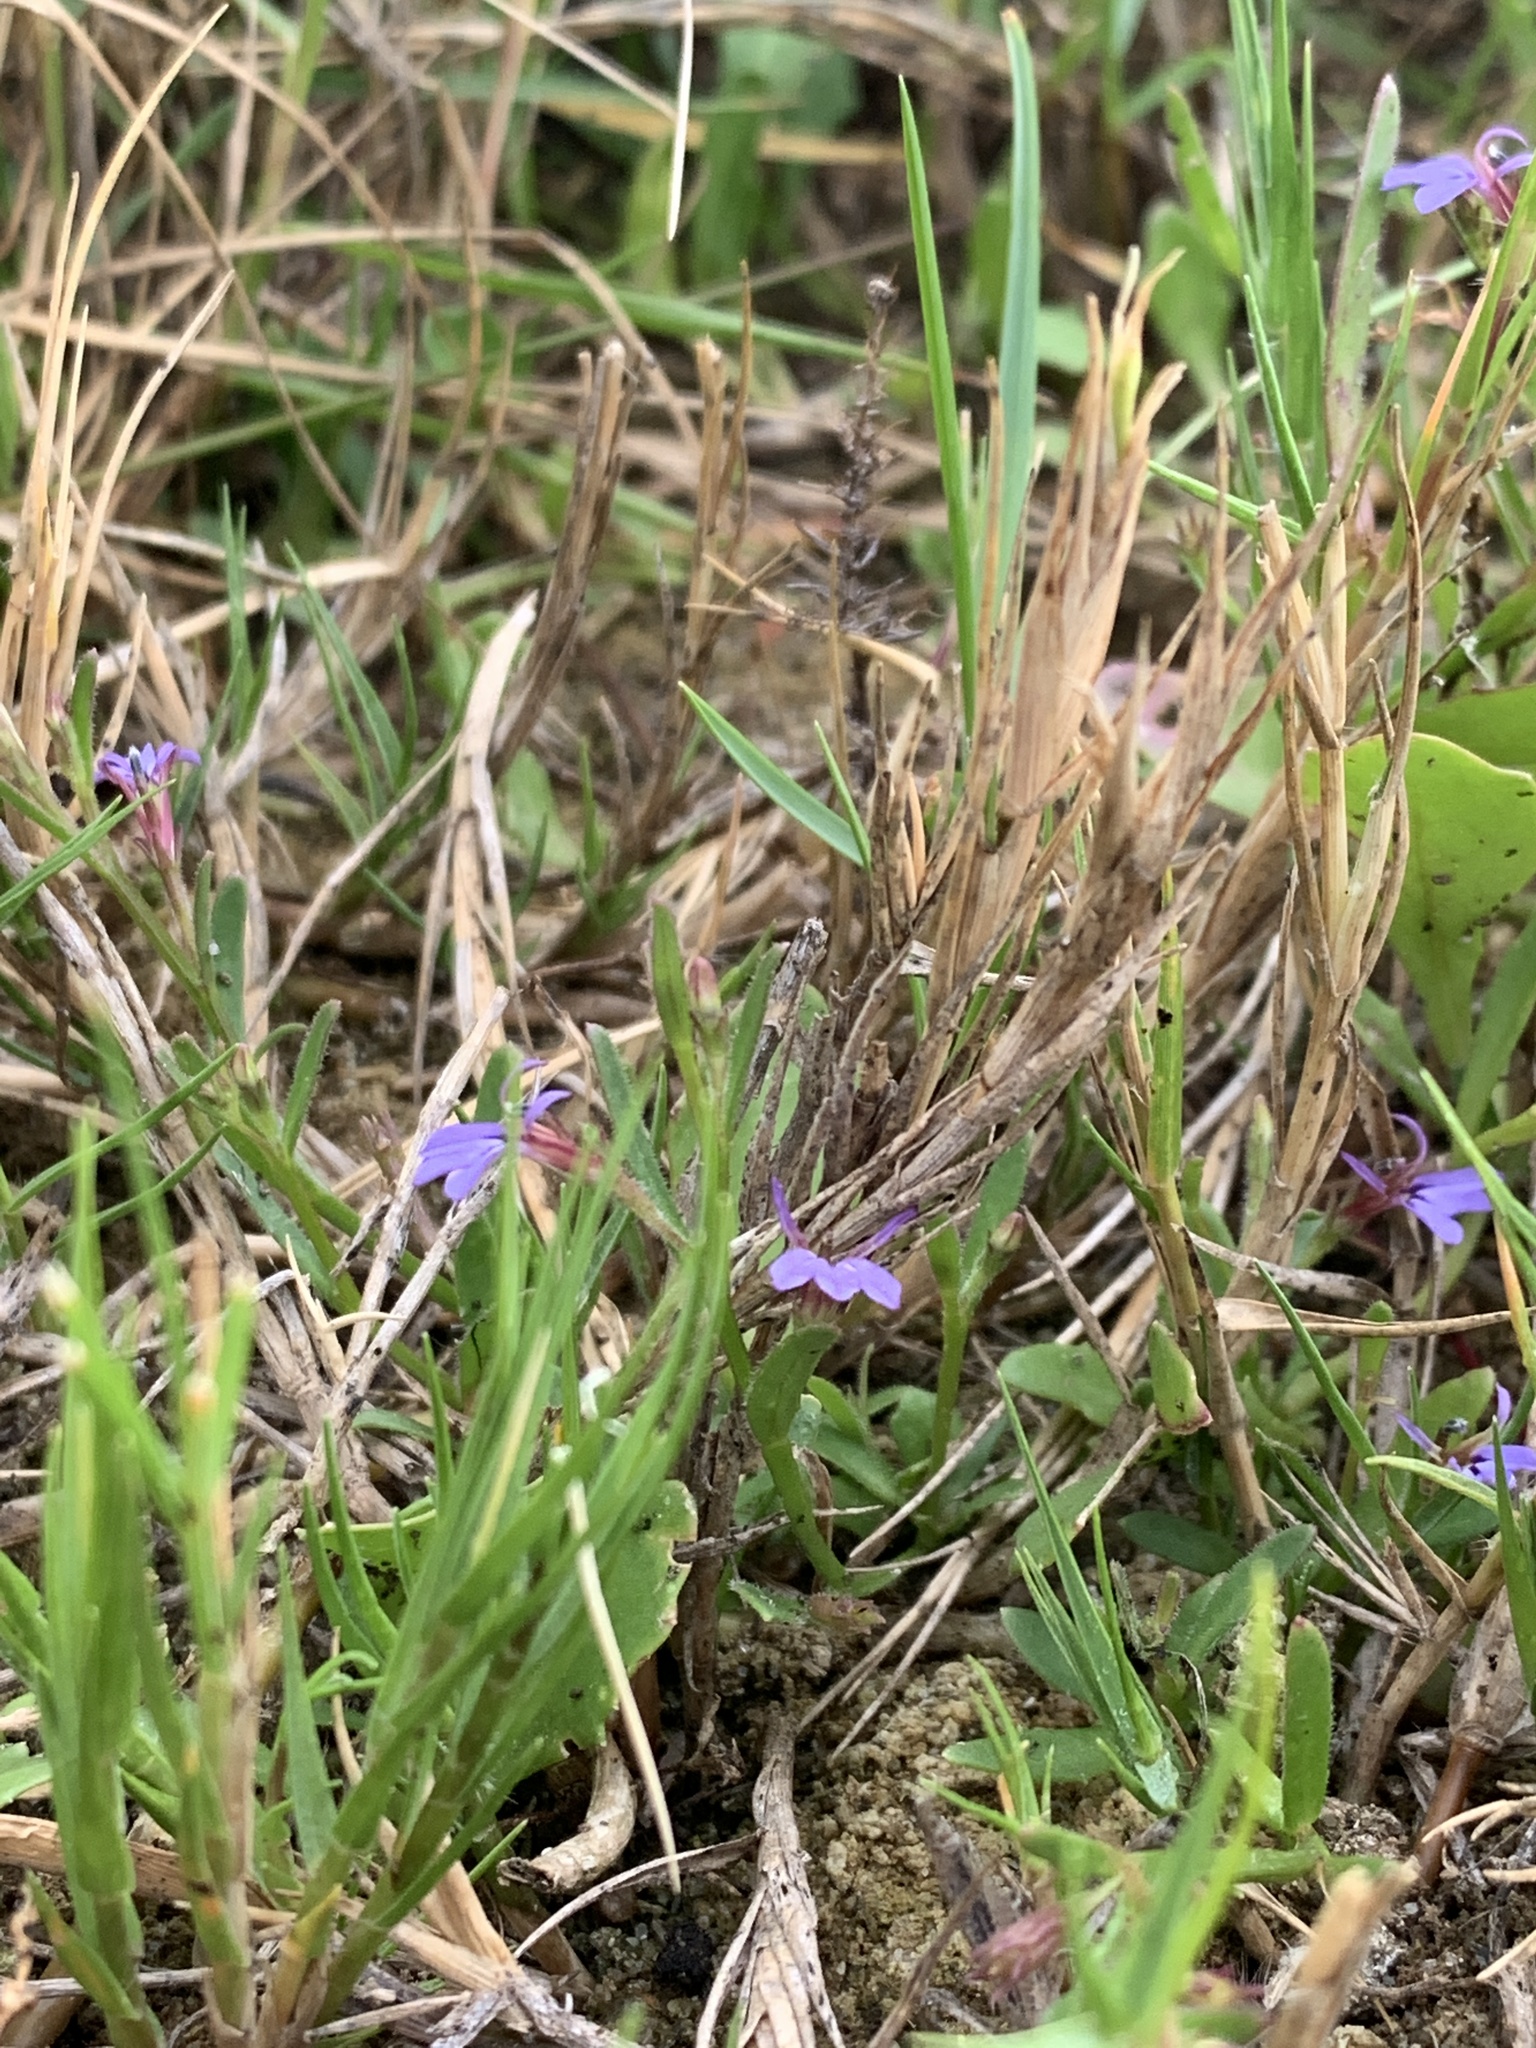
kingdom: Plantae
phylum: Tracheophyta
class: Magnoliopsida
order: Asterales
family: Campanulaceae
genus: Lobelia
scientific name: Lobelia anceps
